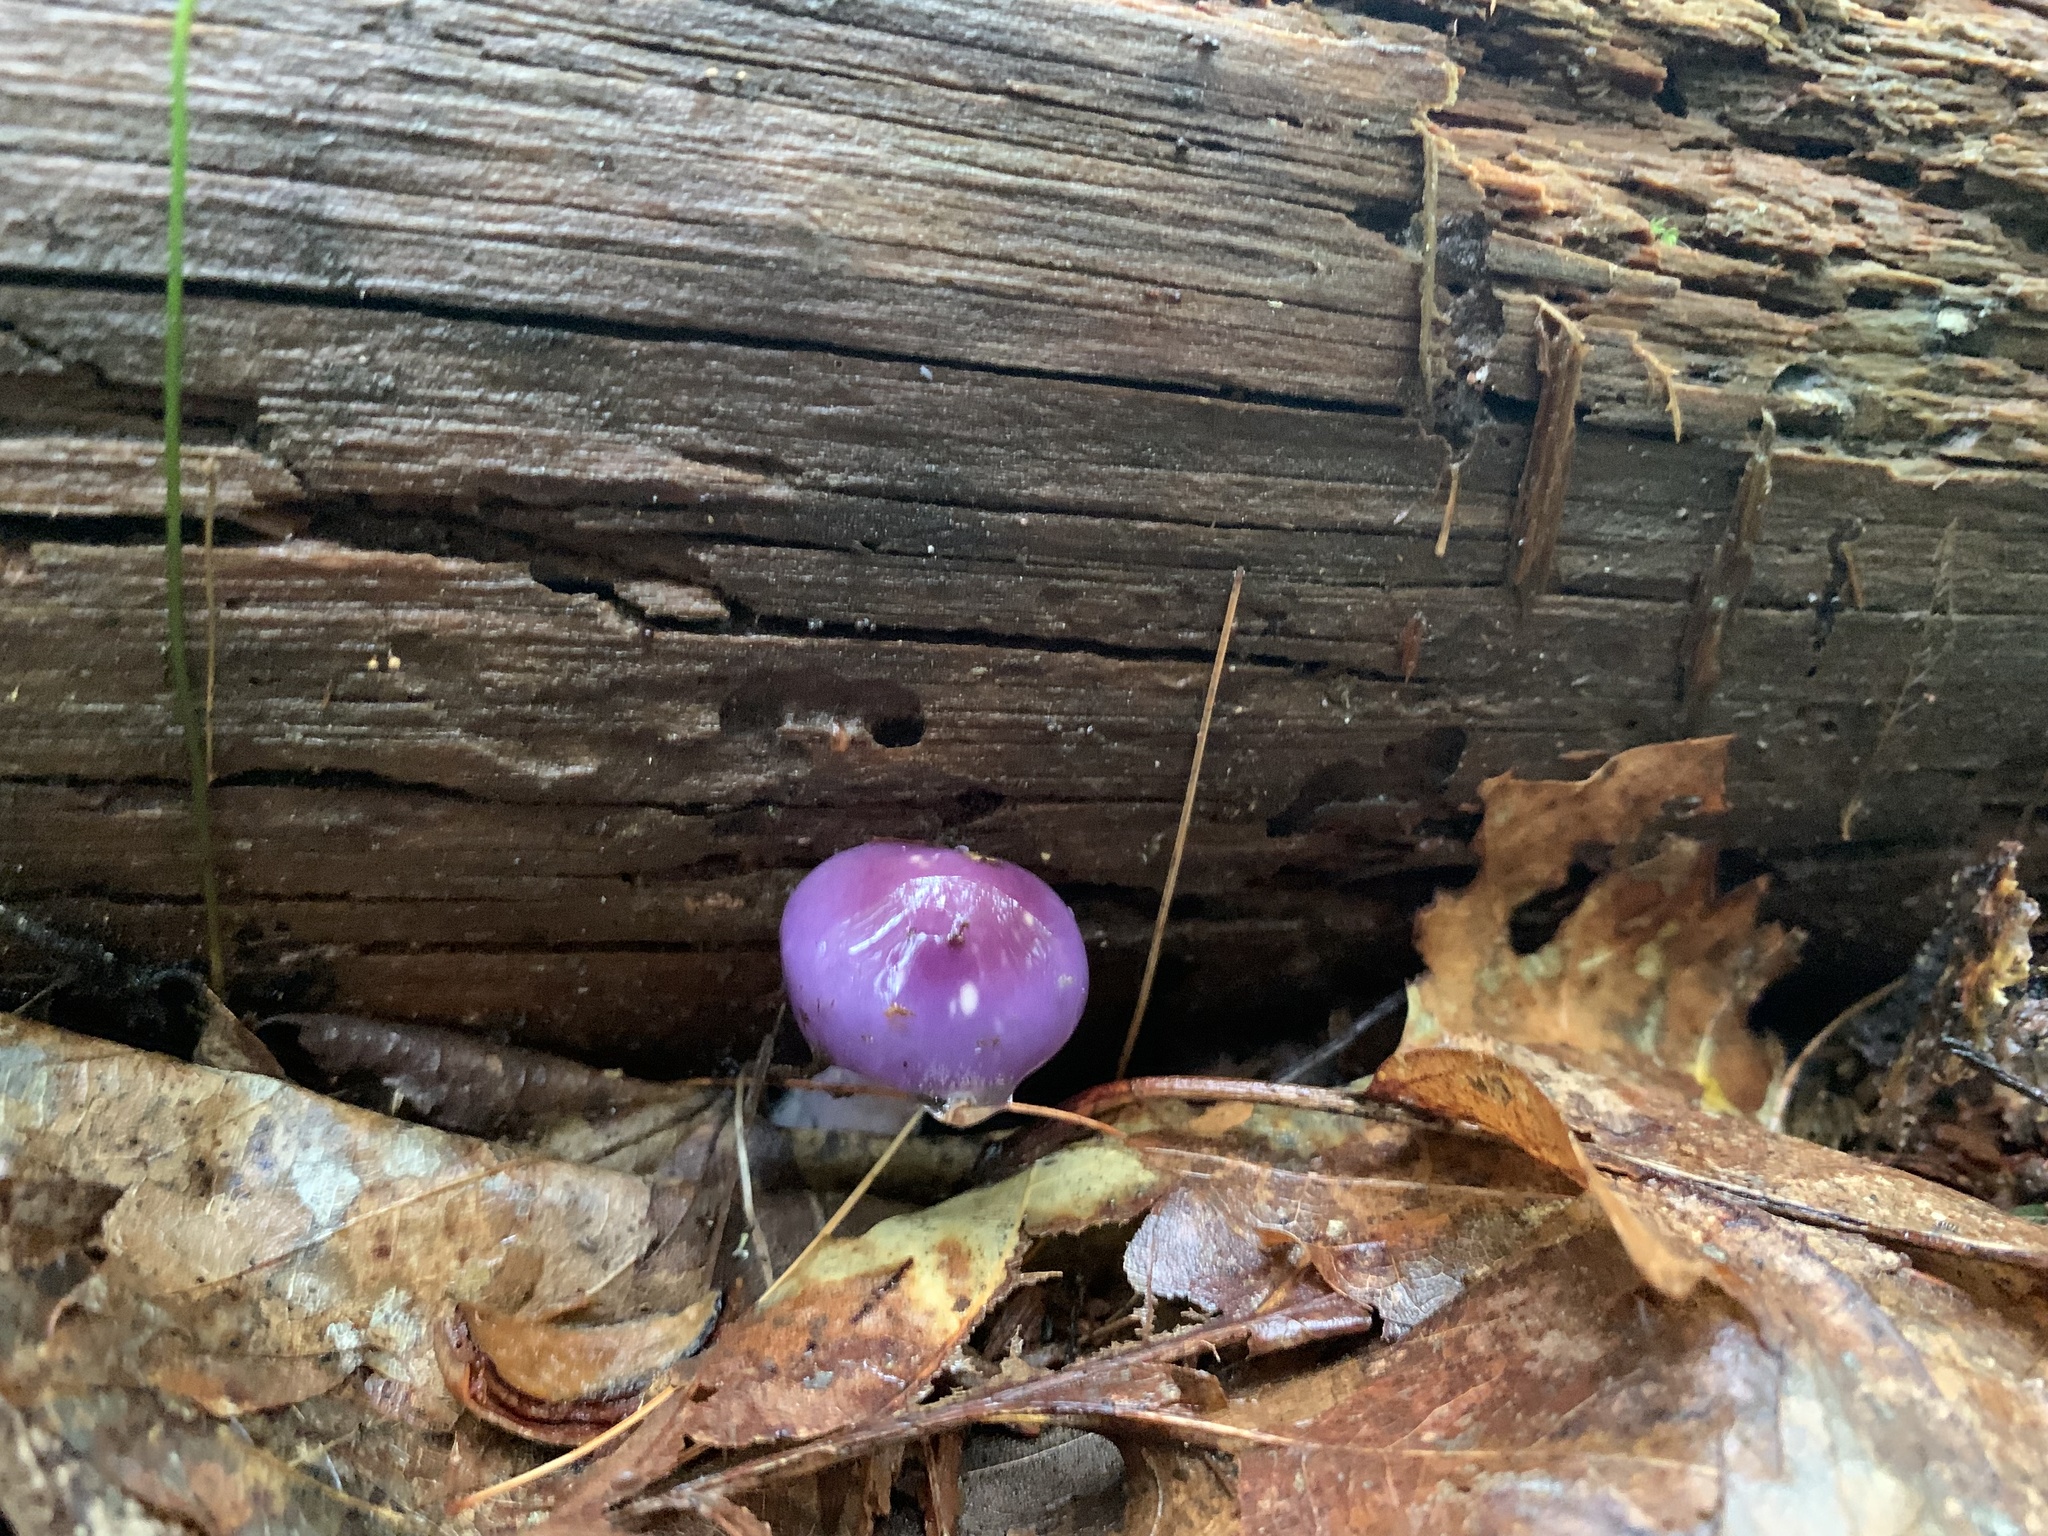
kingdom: Fungi
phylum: Basidiomycota
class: Agaricomycetes
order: Agaricales
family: Cortinariaceae
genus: Cortinarius
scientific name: Cortinarius iodes
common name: Viscid violet cort
